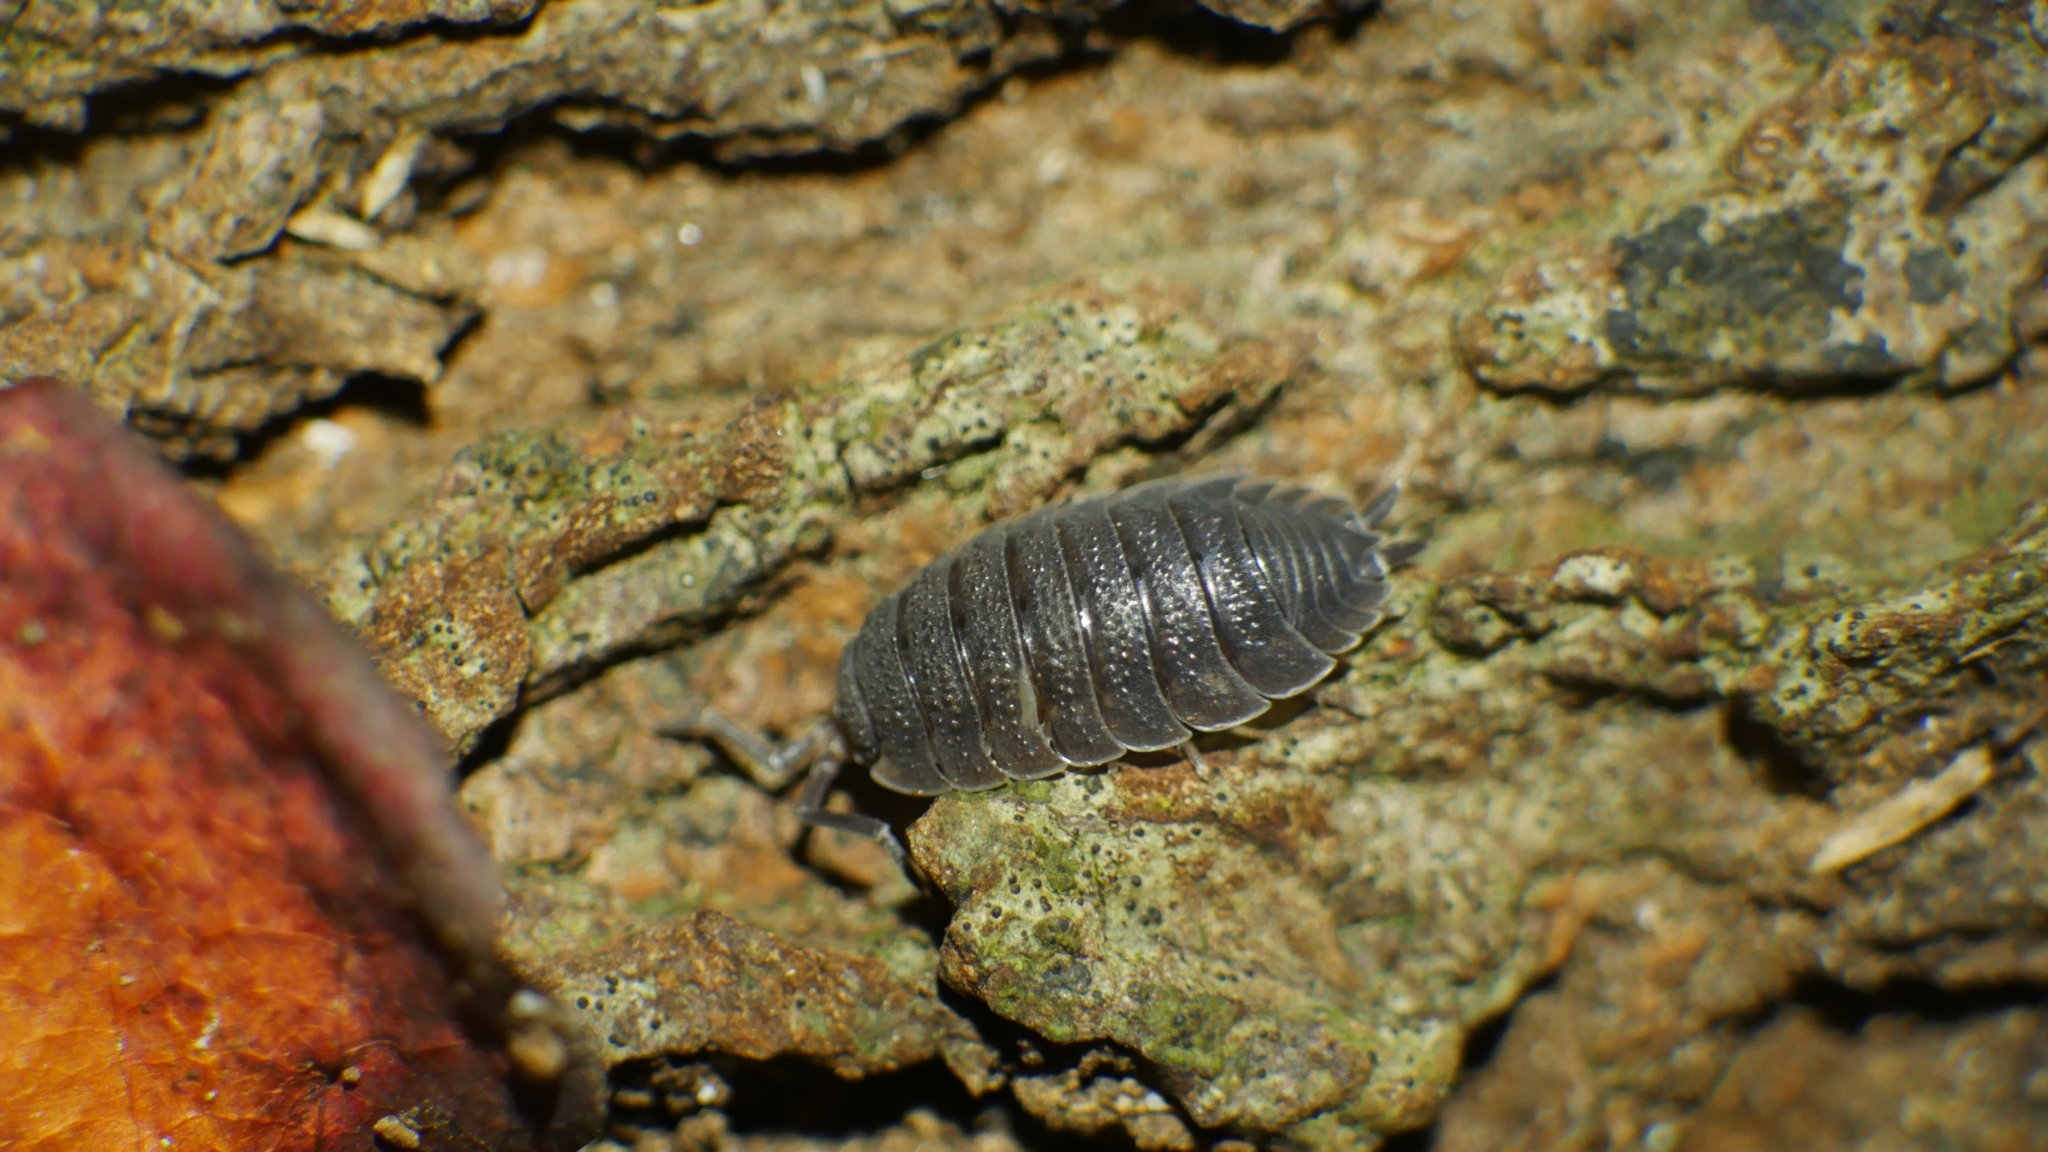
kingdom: Animalia
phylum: Arthropoda
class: Malacostraca
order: Isopoda
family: Porcellionidae
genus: Porcellio
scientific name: Porcellio scaber
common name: Common rough woodlouse
